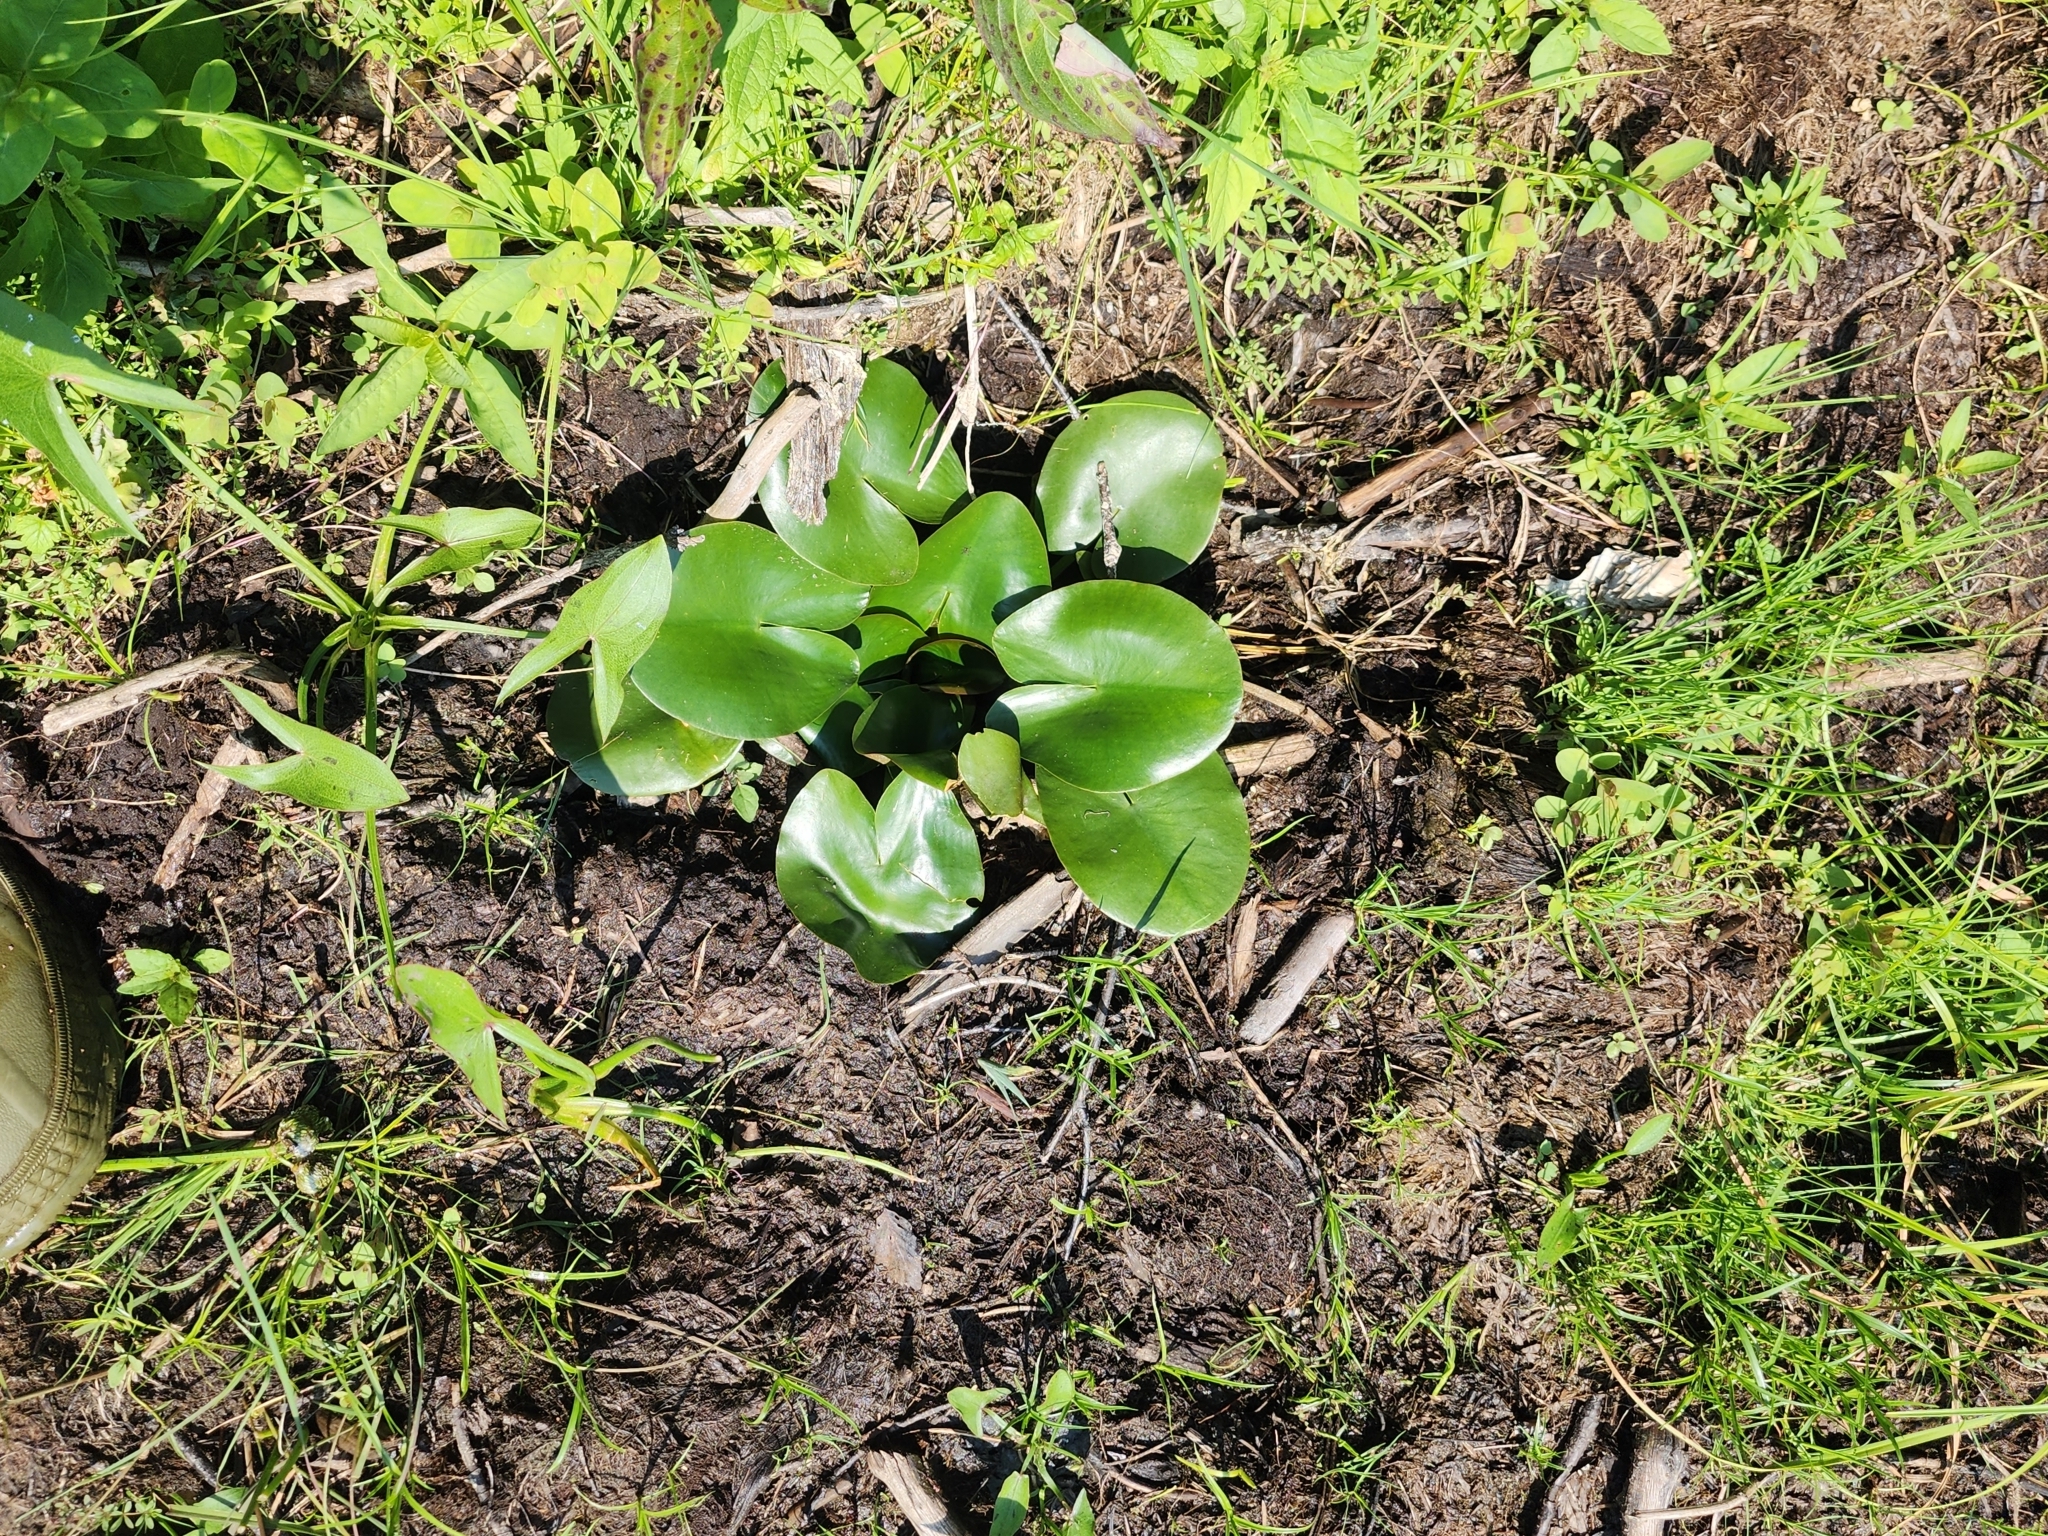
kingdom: Plantae
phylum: Tracheophyta
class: Magnoliopsida
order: Nymphaeales
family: Nymphaeaceae
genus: Nymphaea
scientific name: Nymphaea odorata
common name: Fragrant water-lily
